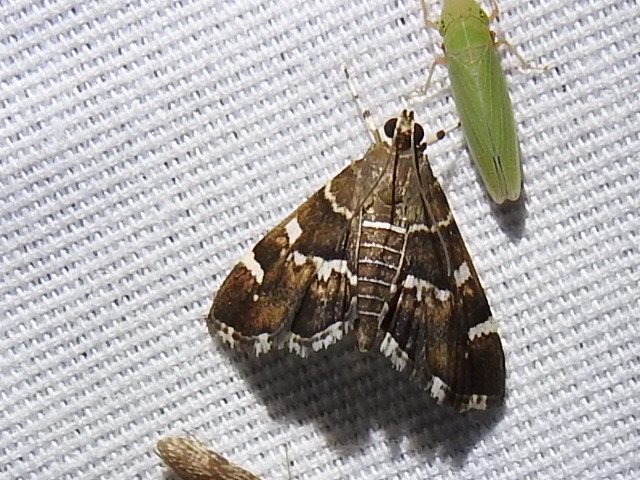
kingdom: Animalia
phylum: Arthropoda
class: Insecta
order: Lepidoptera
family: Crambidae
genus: Hymenia
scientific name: Hymenia perspectalis
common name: Spotted beet webworm
